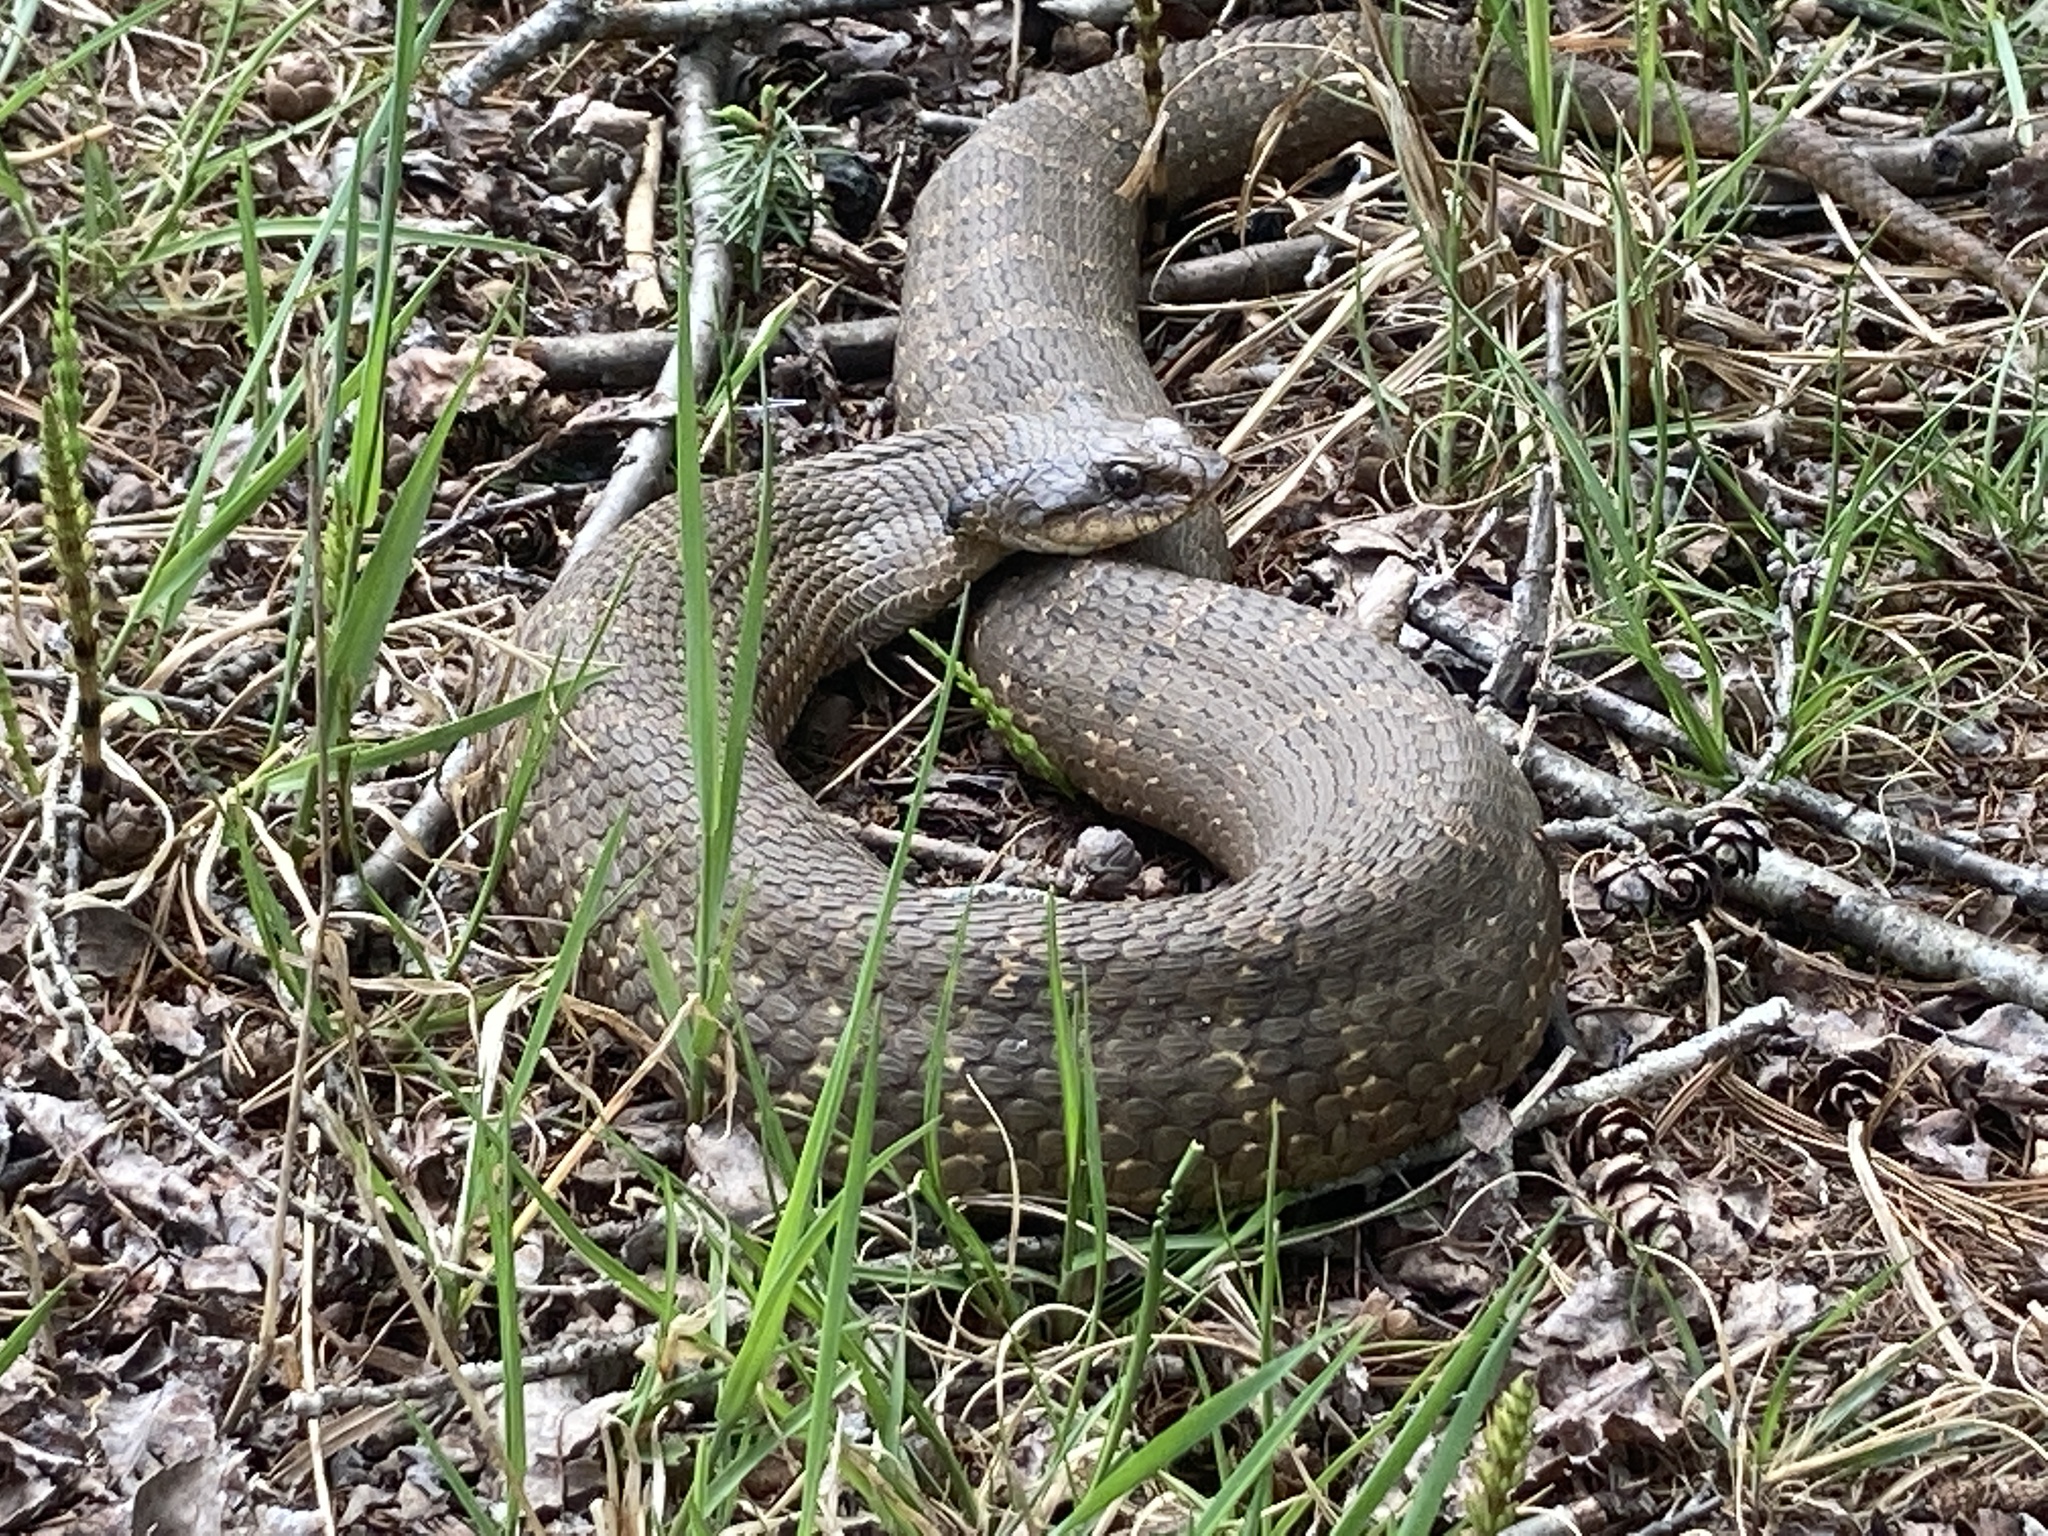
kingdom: Animalia
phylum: Chordata
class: Squamata
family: Colubridae
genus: Heterodon
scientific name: Heterodon platirhinos
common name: Eastern hognose snake
